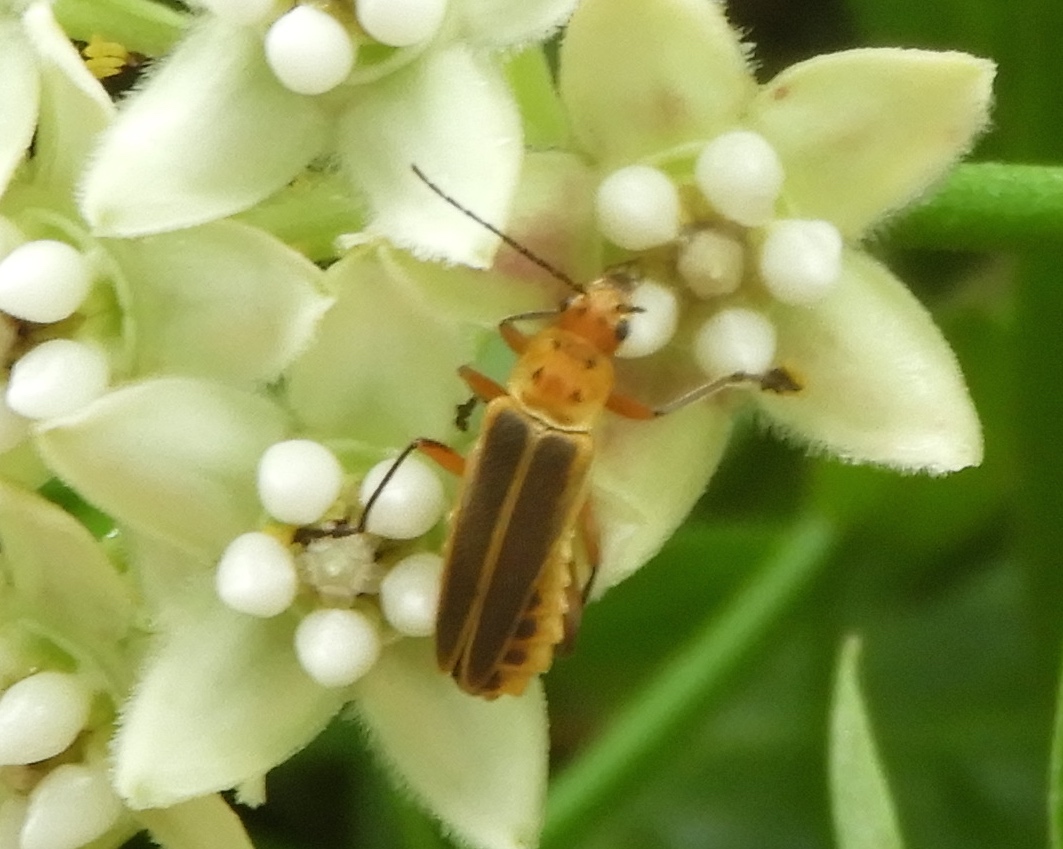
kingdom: Animalia
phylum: Arthropoda
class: Insecta
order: Coleoptera
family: Cantharidae
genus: Chauliognathus
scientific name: Chauliognathus
